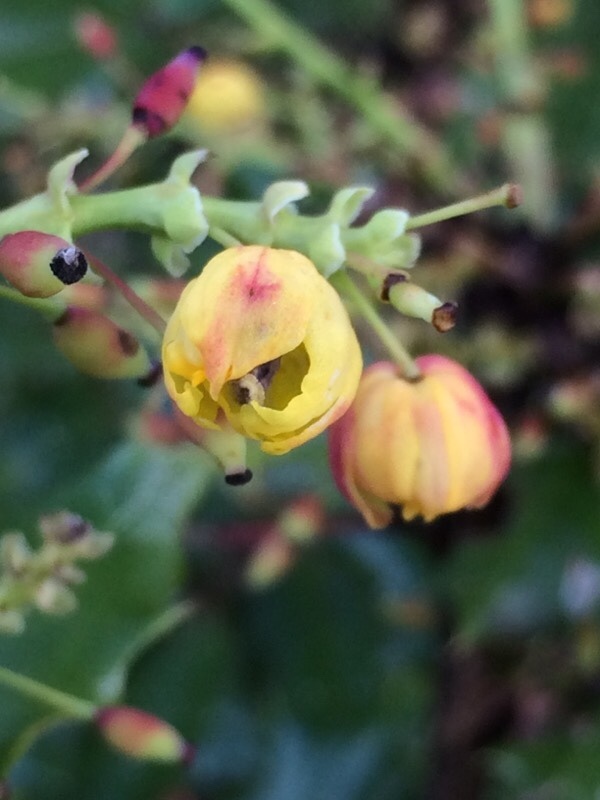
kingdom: Plantae
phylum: Tracheophyta
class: Magnoliopsida
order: Ranunculales
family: Berberidaceae
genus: Mahonia
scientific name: Mahonia aquifolium
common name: Oregon-grape
